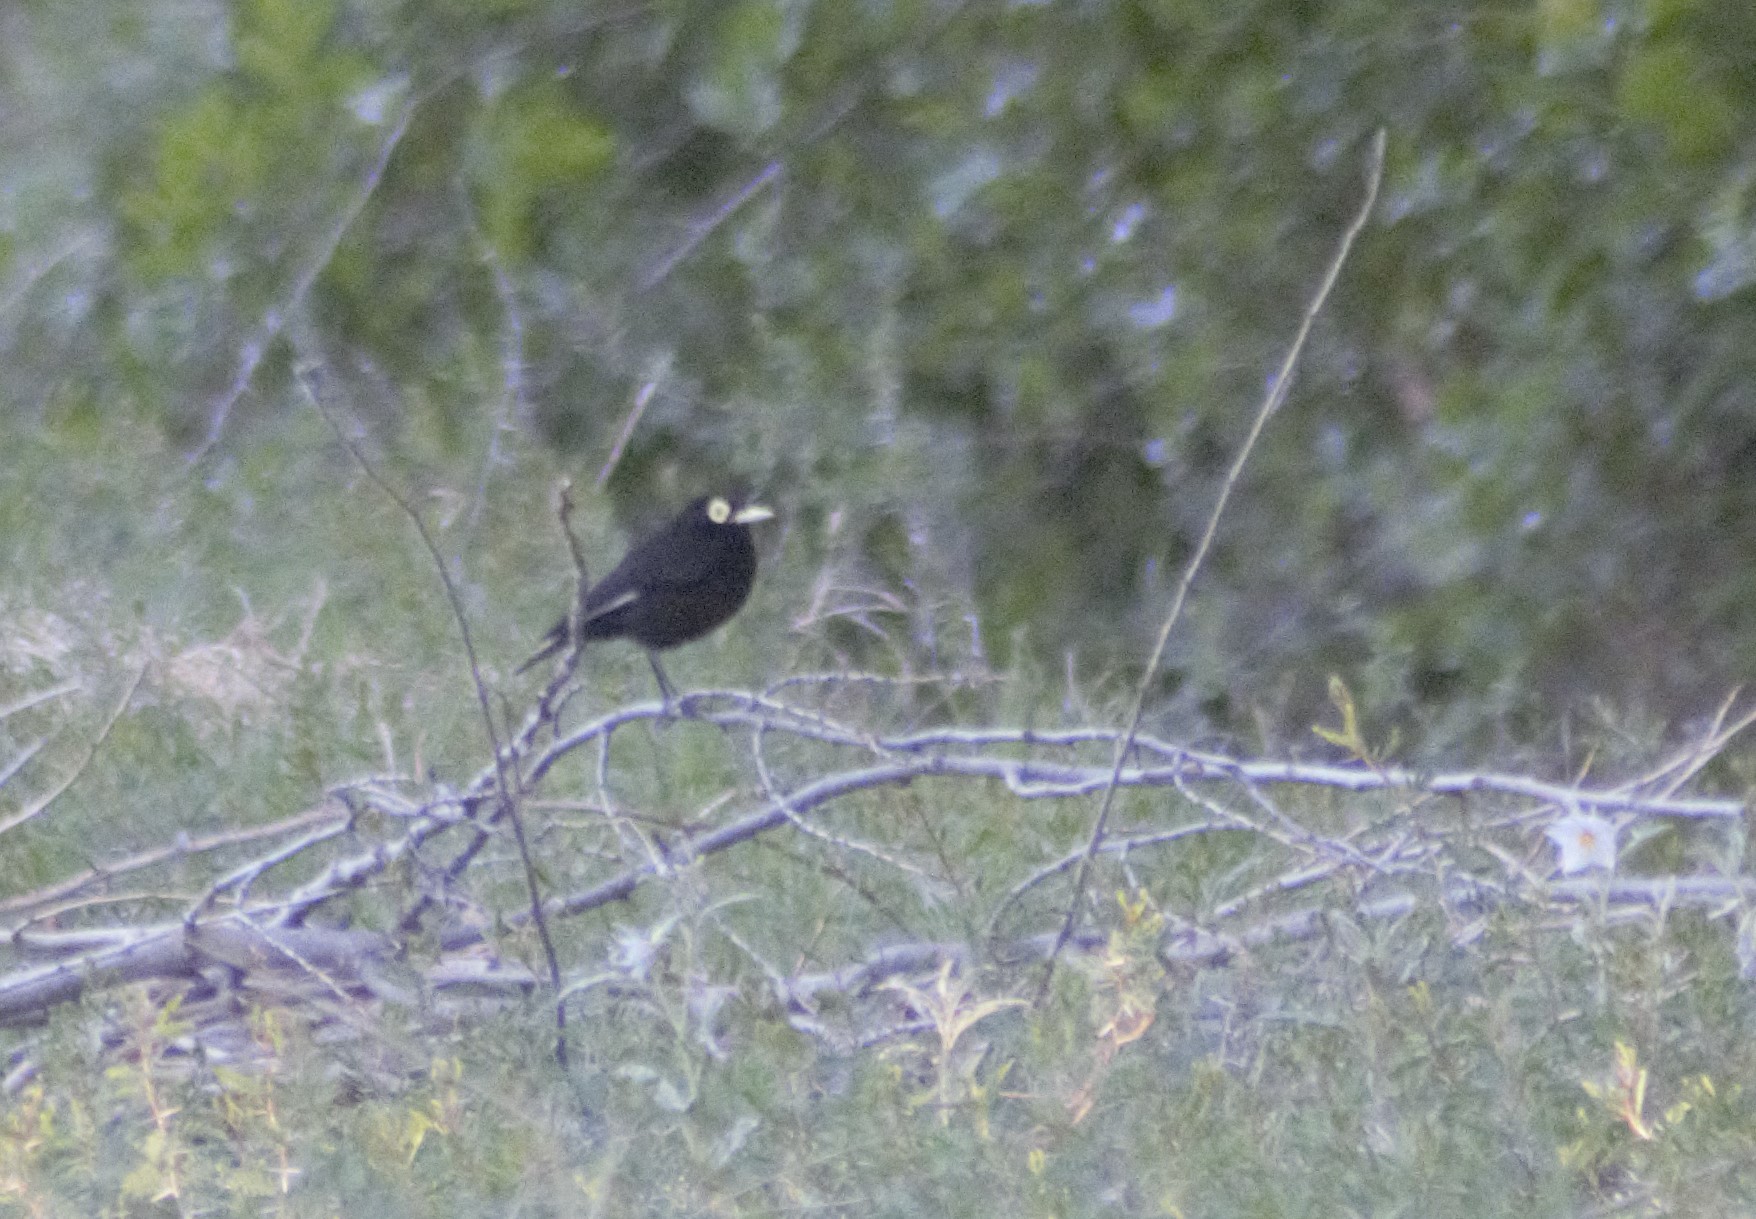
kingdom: Animalia
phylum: Chordata
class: Aves
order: Passeriformes
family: Tyrannidae
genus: Hymenops
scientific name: Hymenops perspicillatus
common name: Spectacled tyrant
